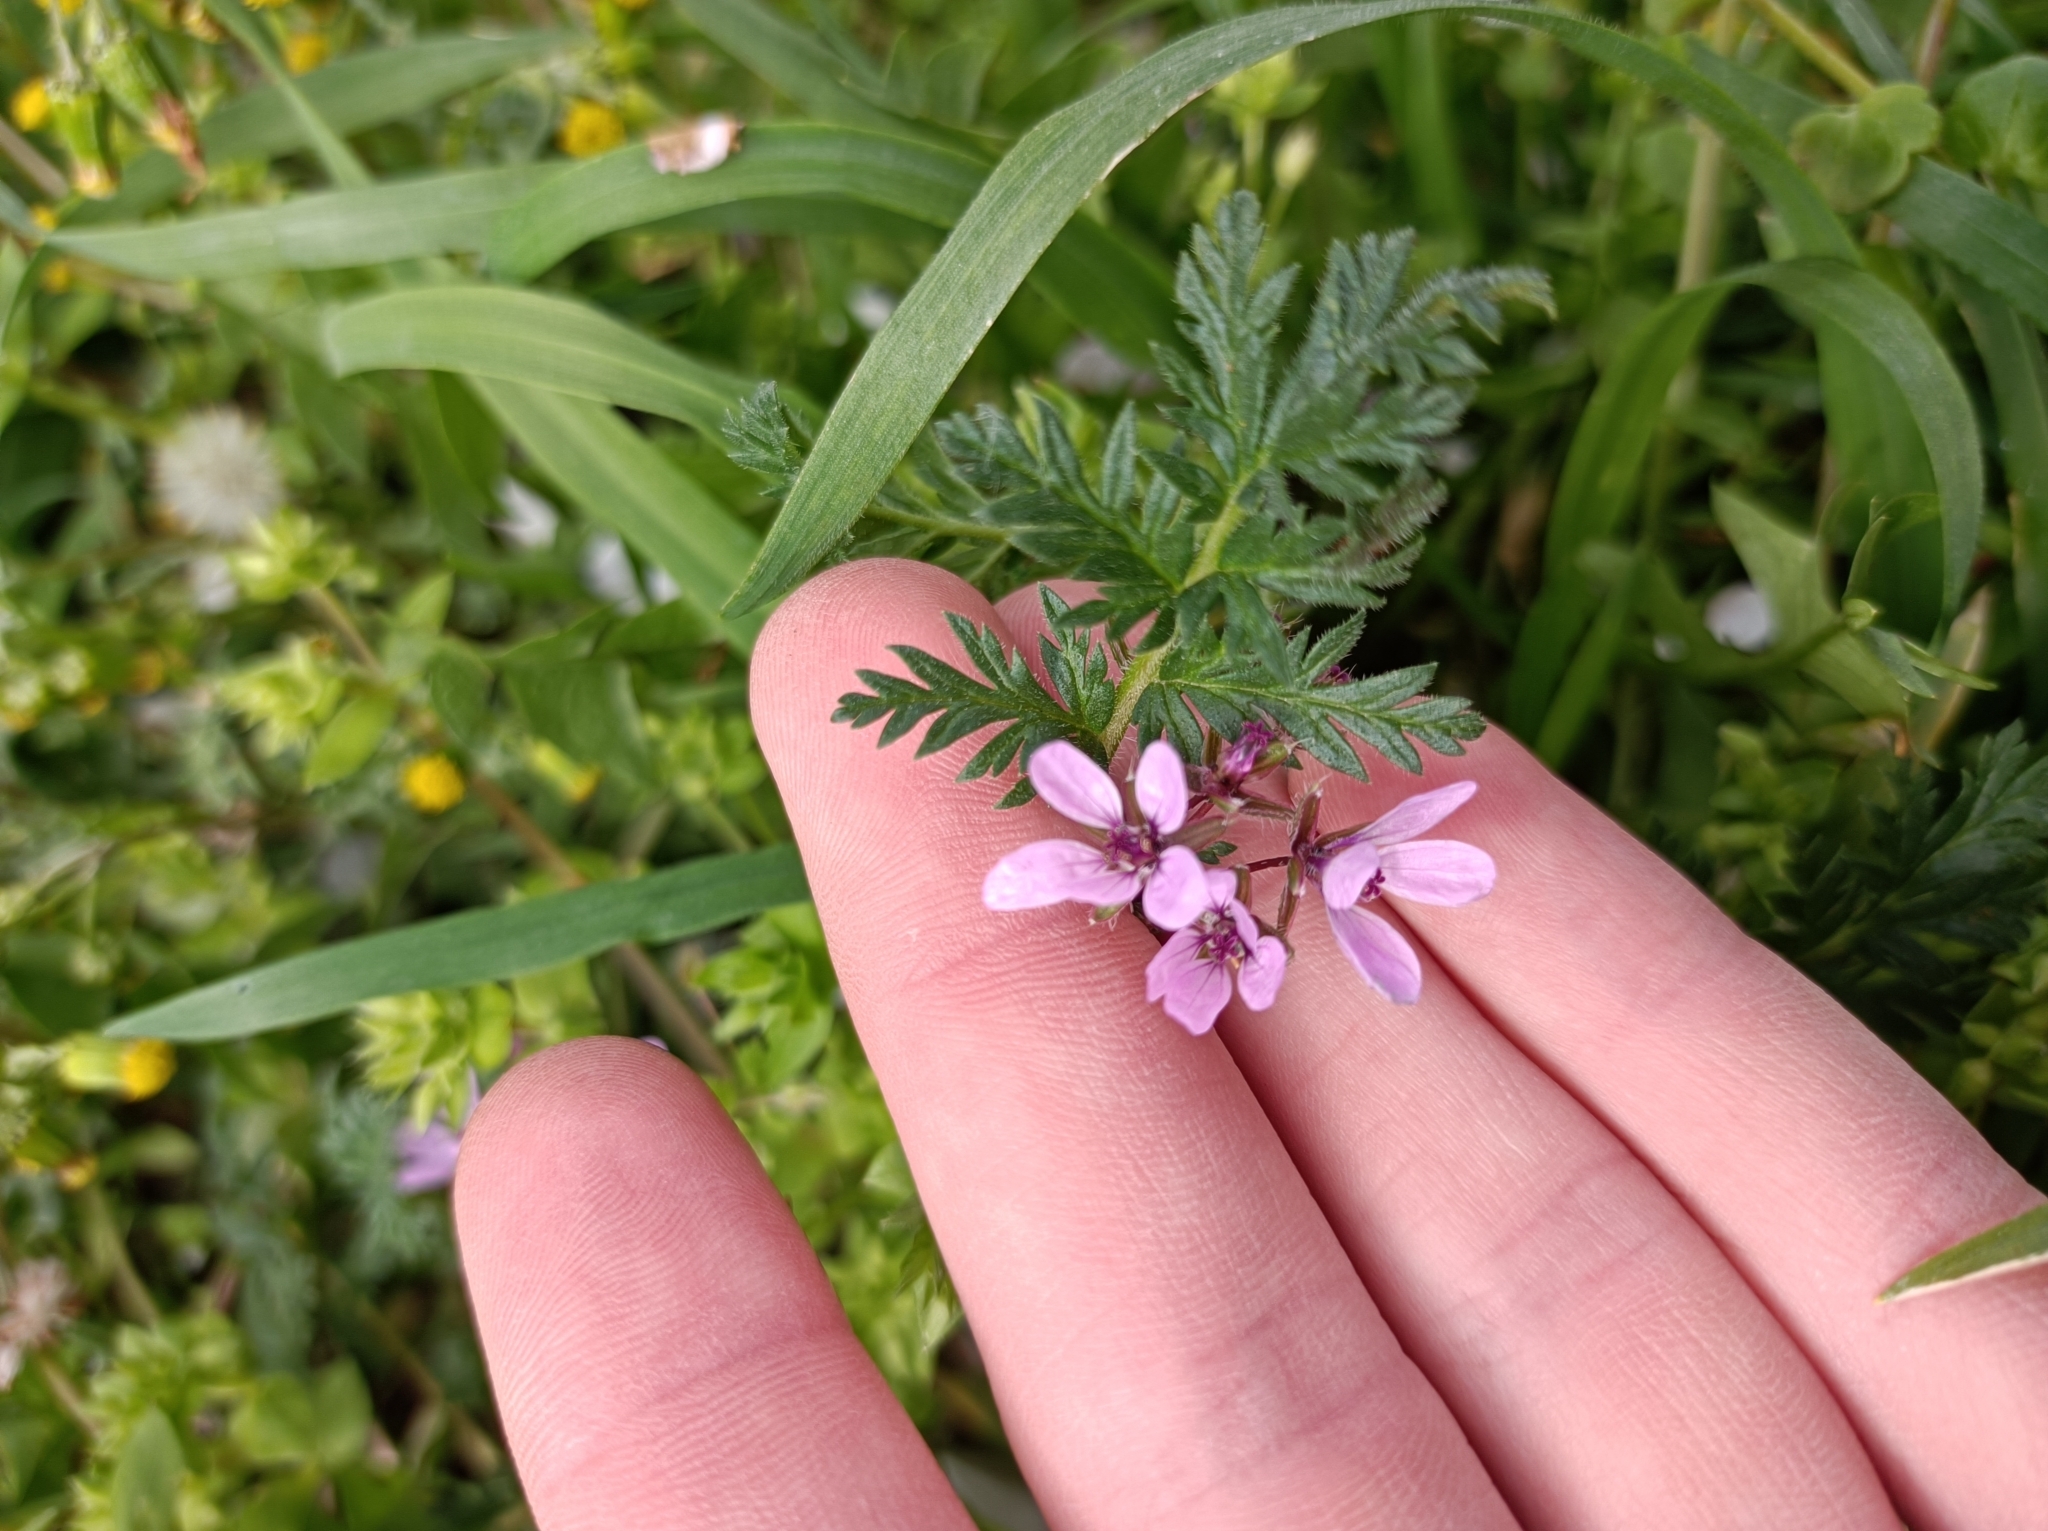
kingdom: Plantae
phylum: Tracheophyta
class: Magnoliopsida
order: Geraniales
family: Geraniaceae
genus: Erodium
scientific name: Erodium cicutarium
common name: Common stork's-bill
